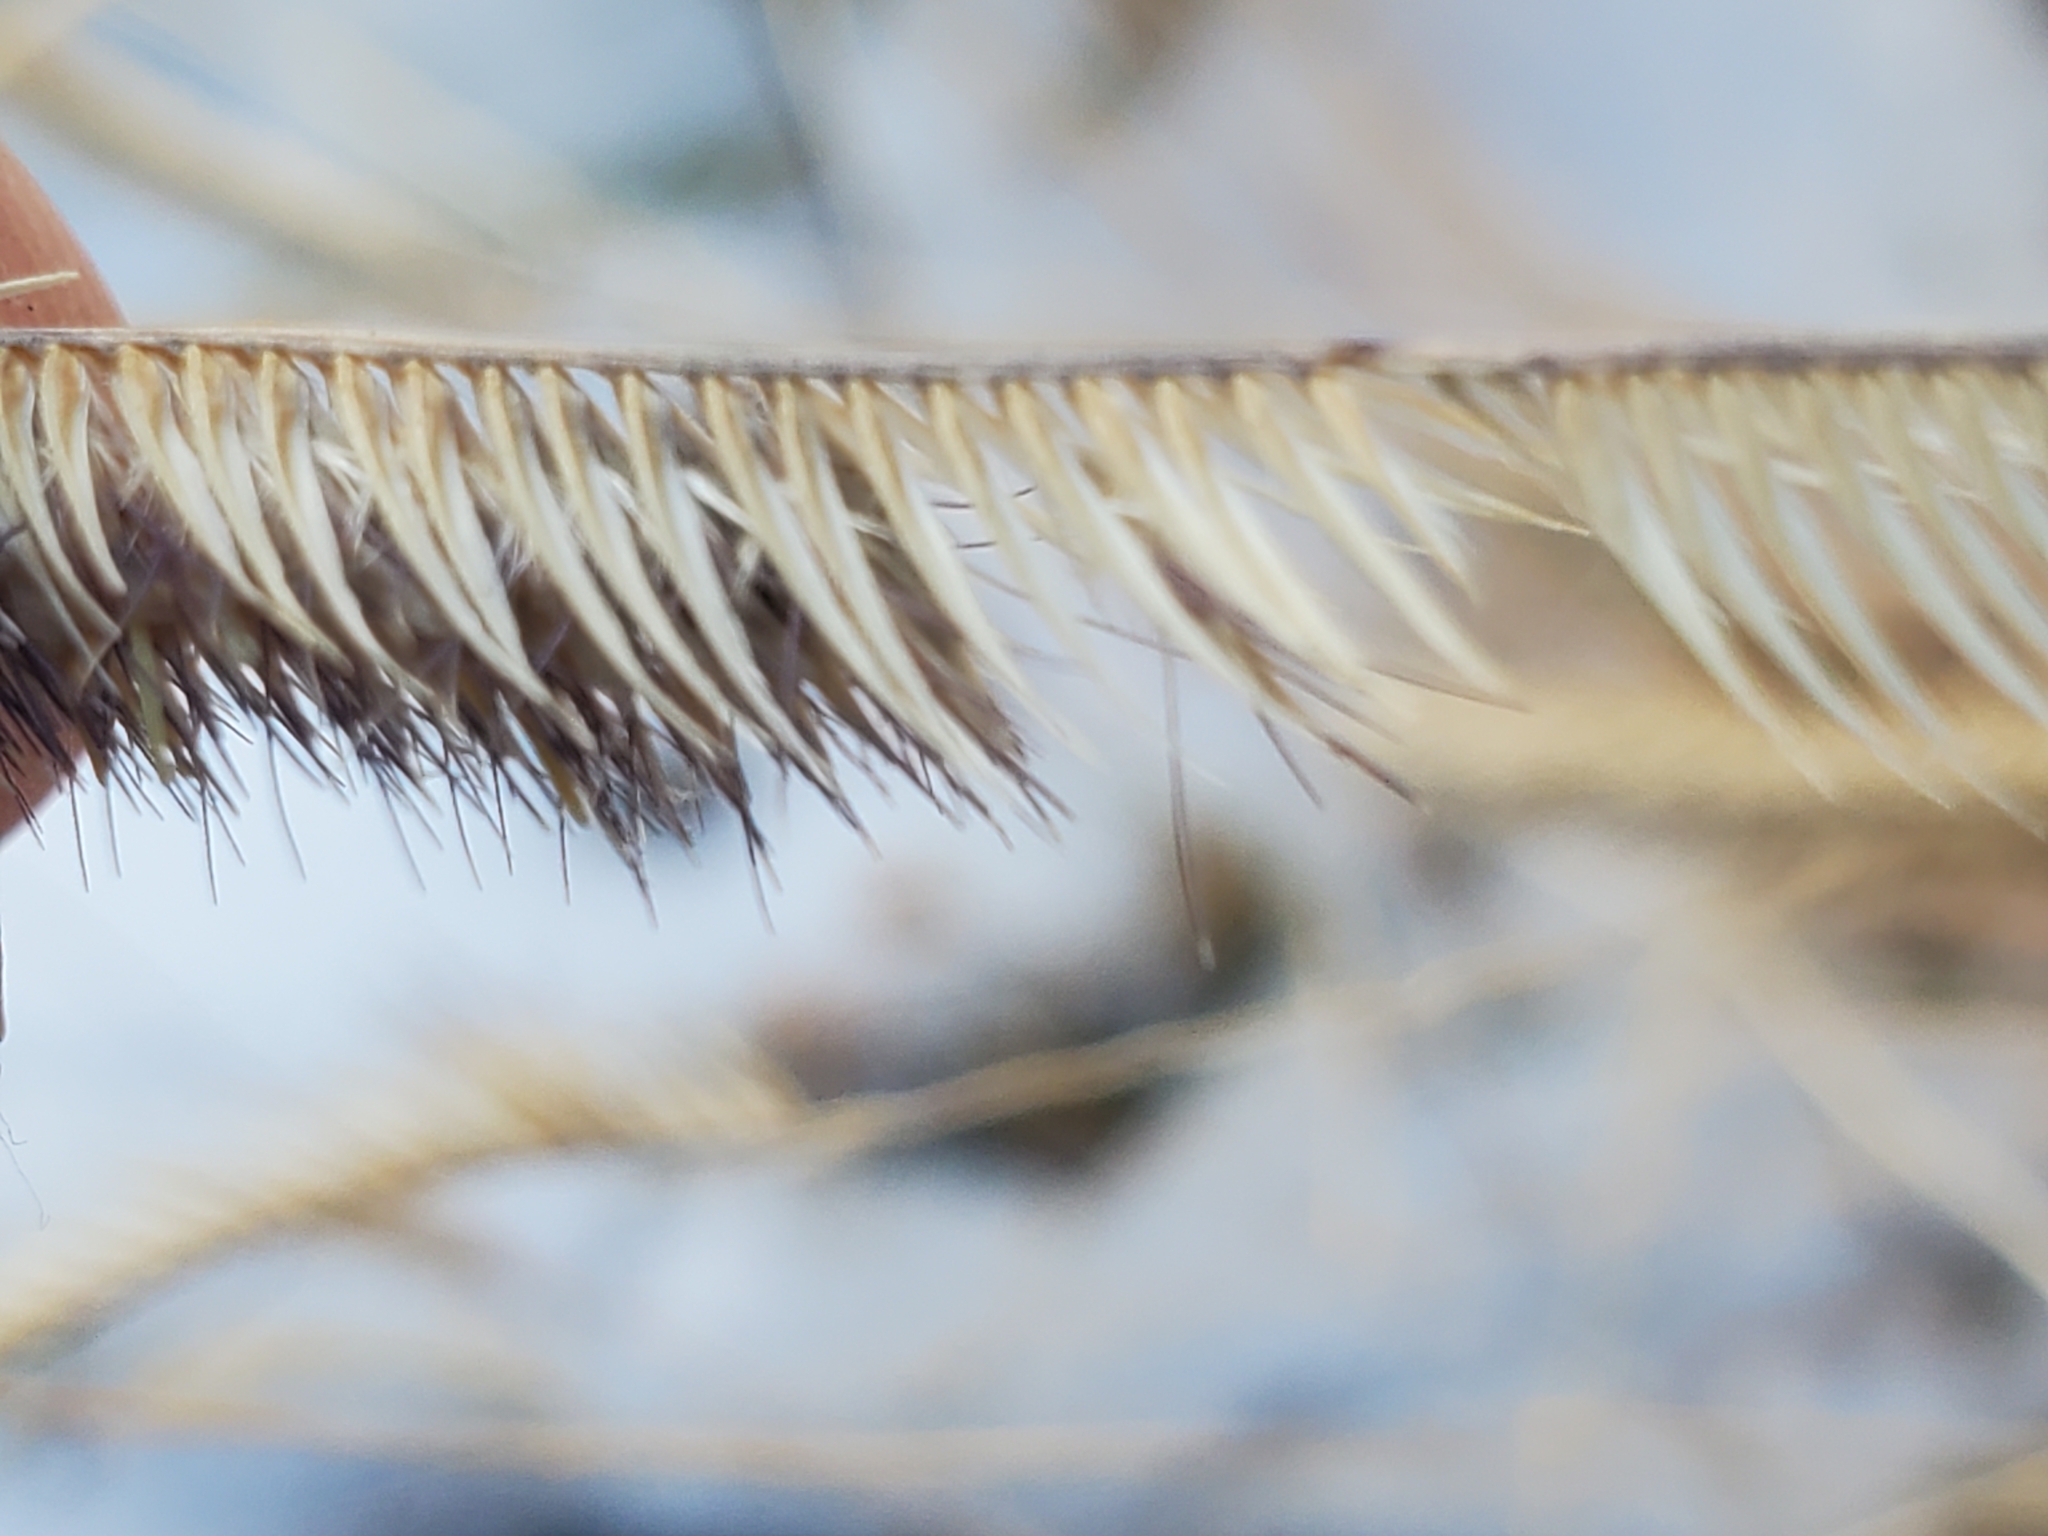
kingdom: Plantae
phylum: Tracheophyta
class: Liliopsida
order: Poales
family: Poaceae
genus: Bouteloua
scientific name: Bouteloua gracilis
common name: Blue grama
